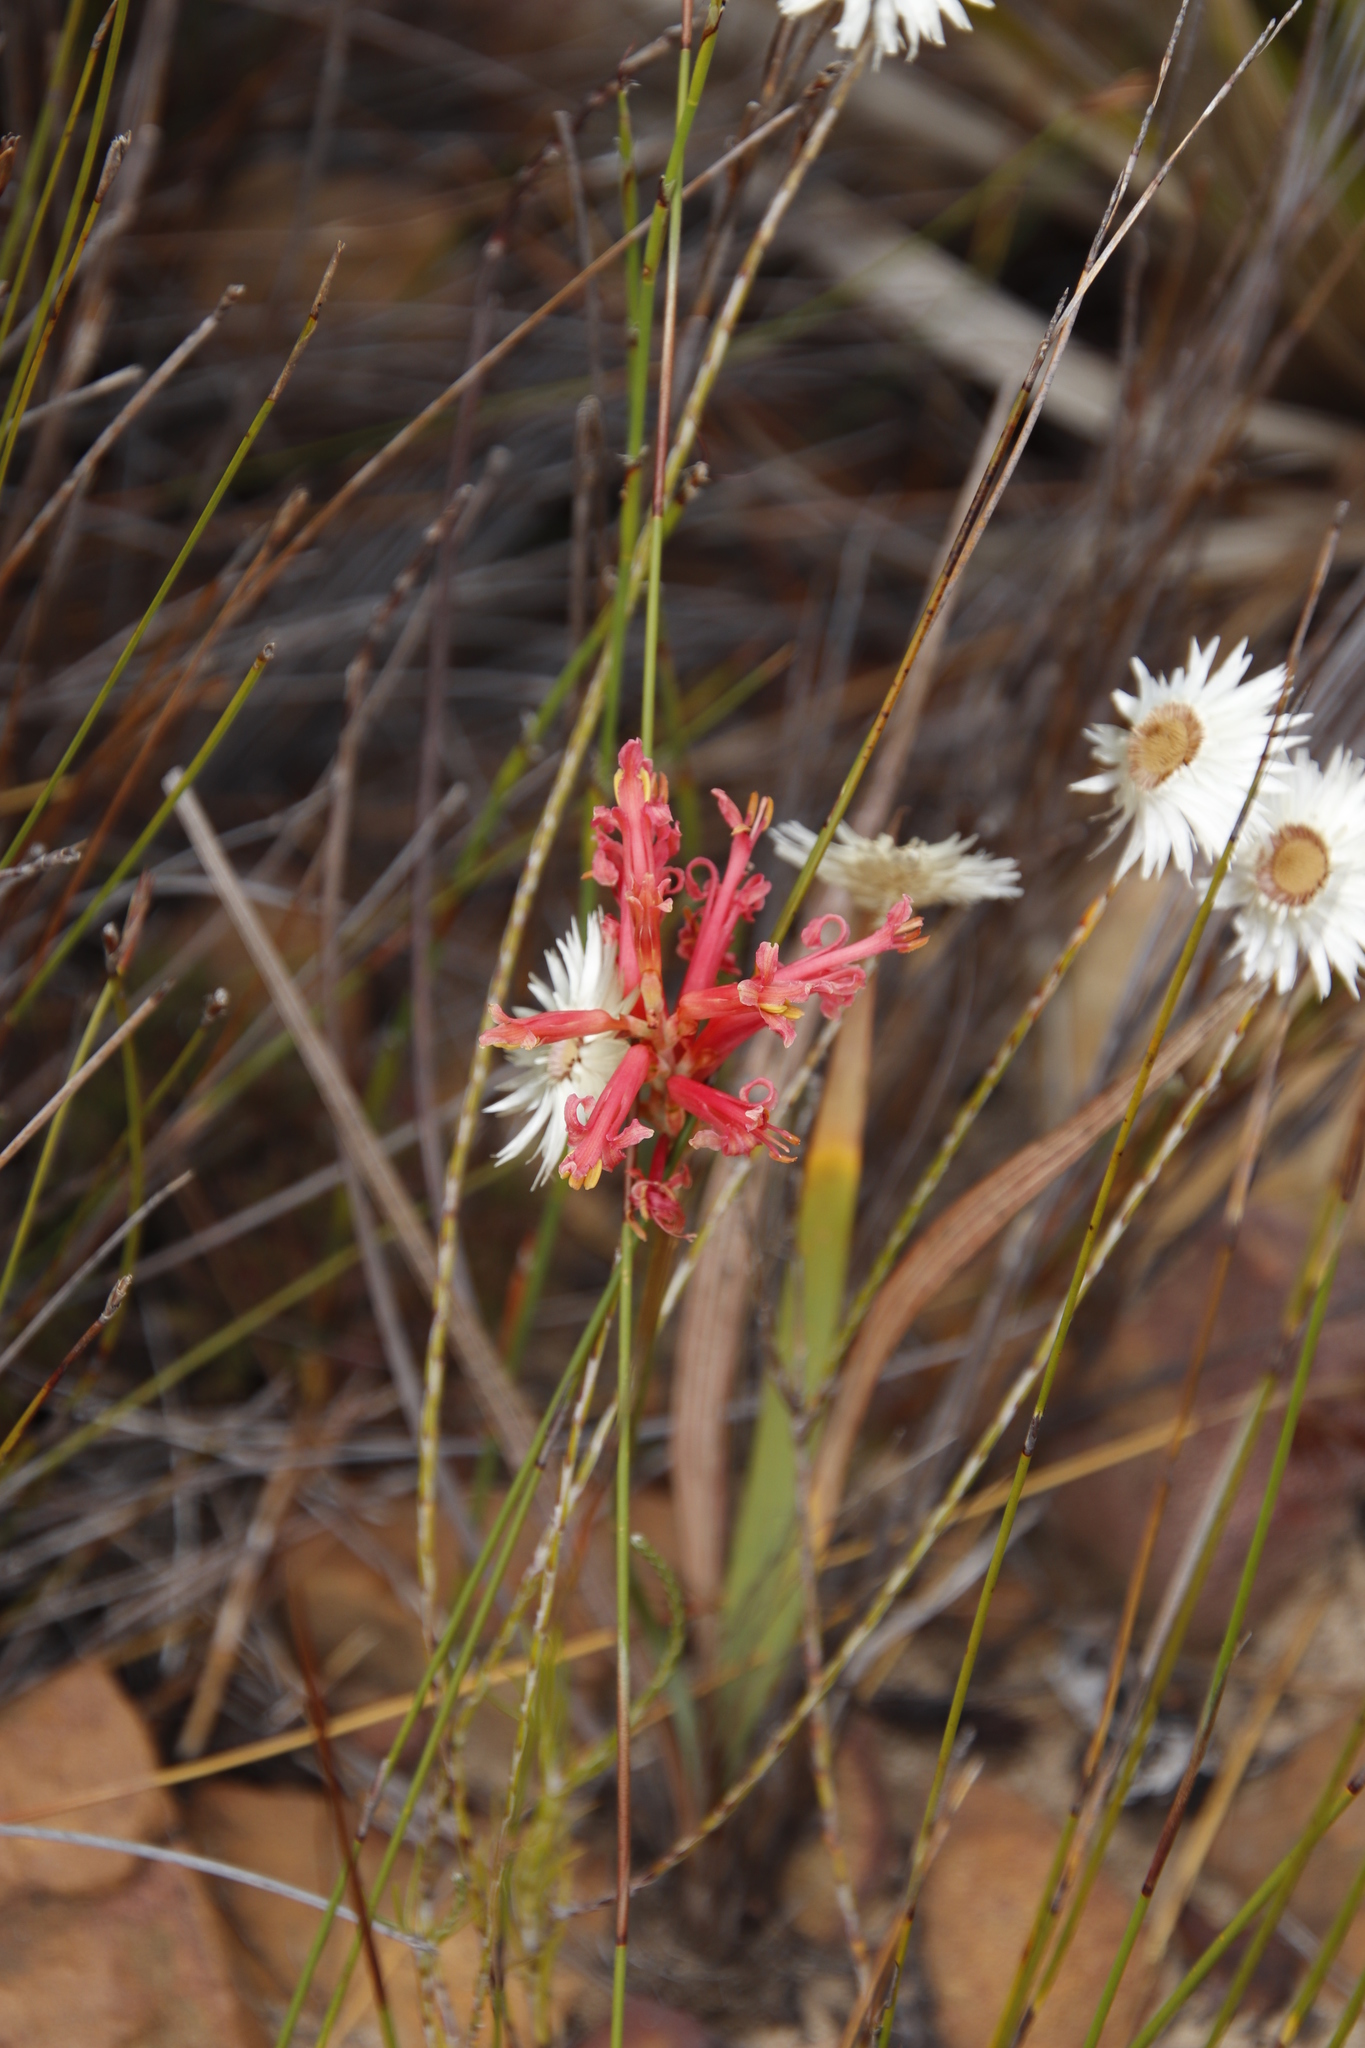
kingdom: Plantae
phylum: Tracheophyta
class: Liliopsida
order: Asparagales
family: Iridaceae
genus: Tritoniopsis
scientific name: Tritoniopsis antholyza
